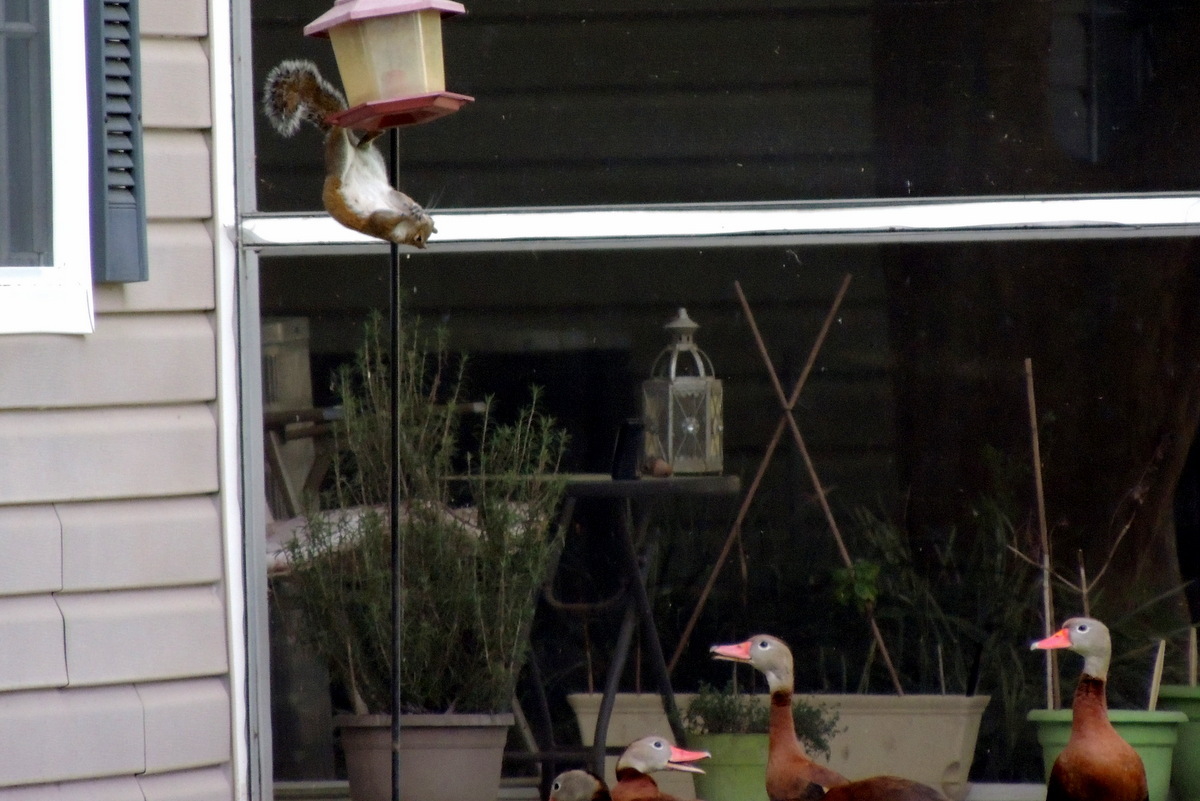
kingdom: Animalia
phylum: Chordata
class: Mammalia
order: Rodentia
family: Sciuridae
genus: Sciurus
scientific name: Sciurus carolinensis
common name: Eastern gray squirrel
